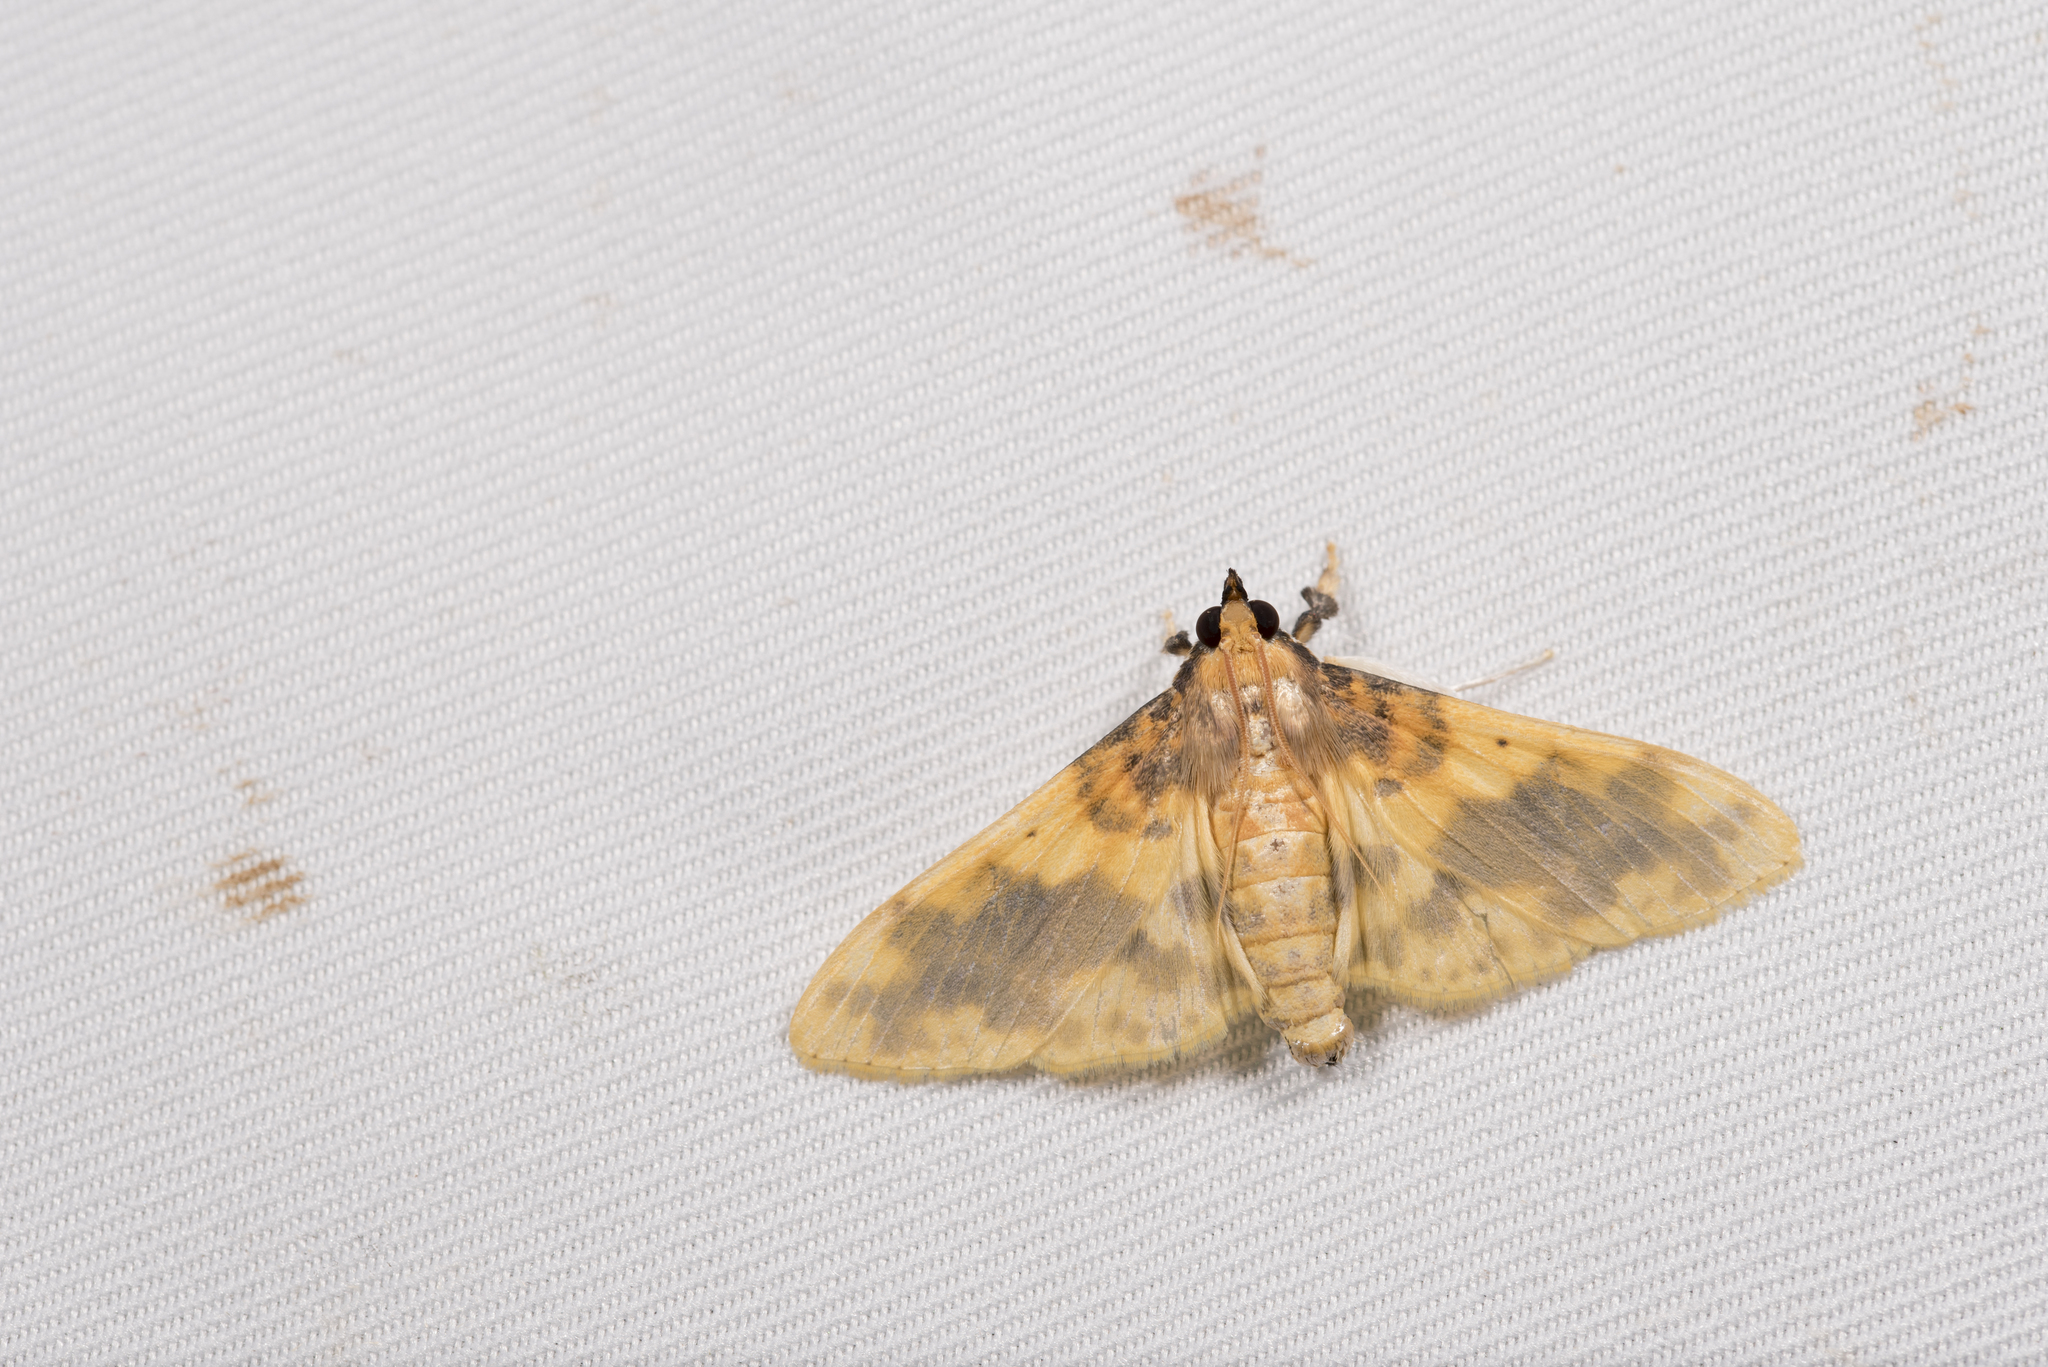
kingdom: Animalia
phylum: Arthropoda
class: Insecta
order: Lepidoptera
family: Crambidae
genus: Pachynoa
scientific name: Pachynoa thoosalis
